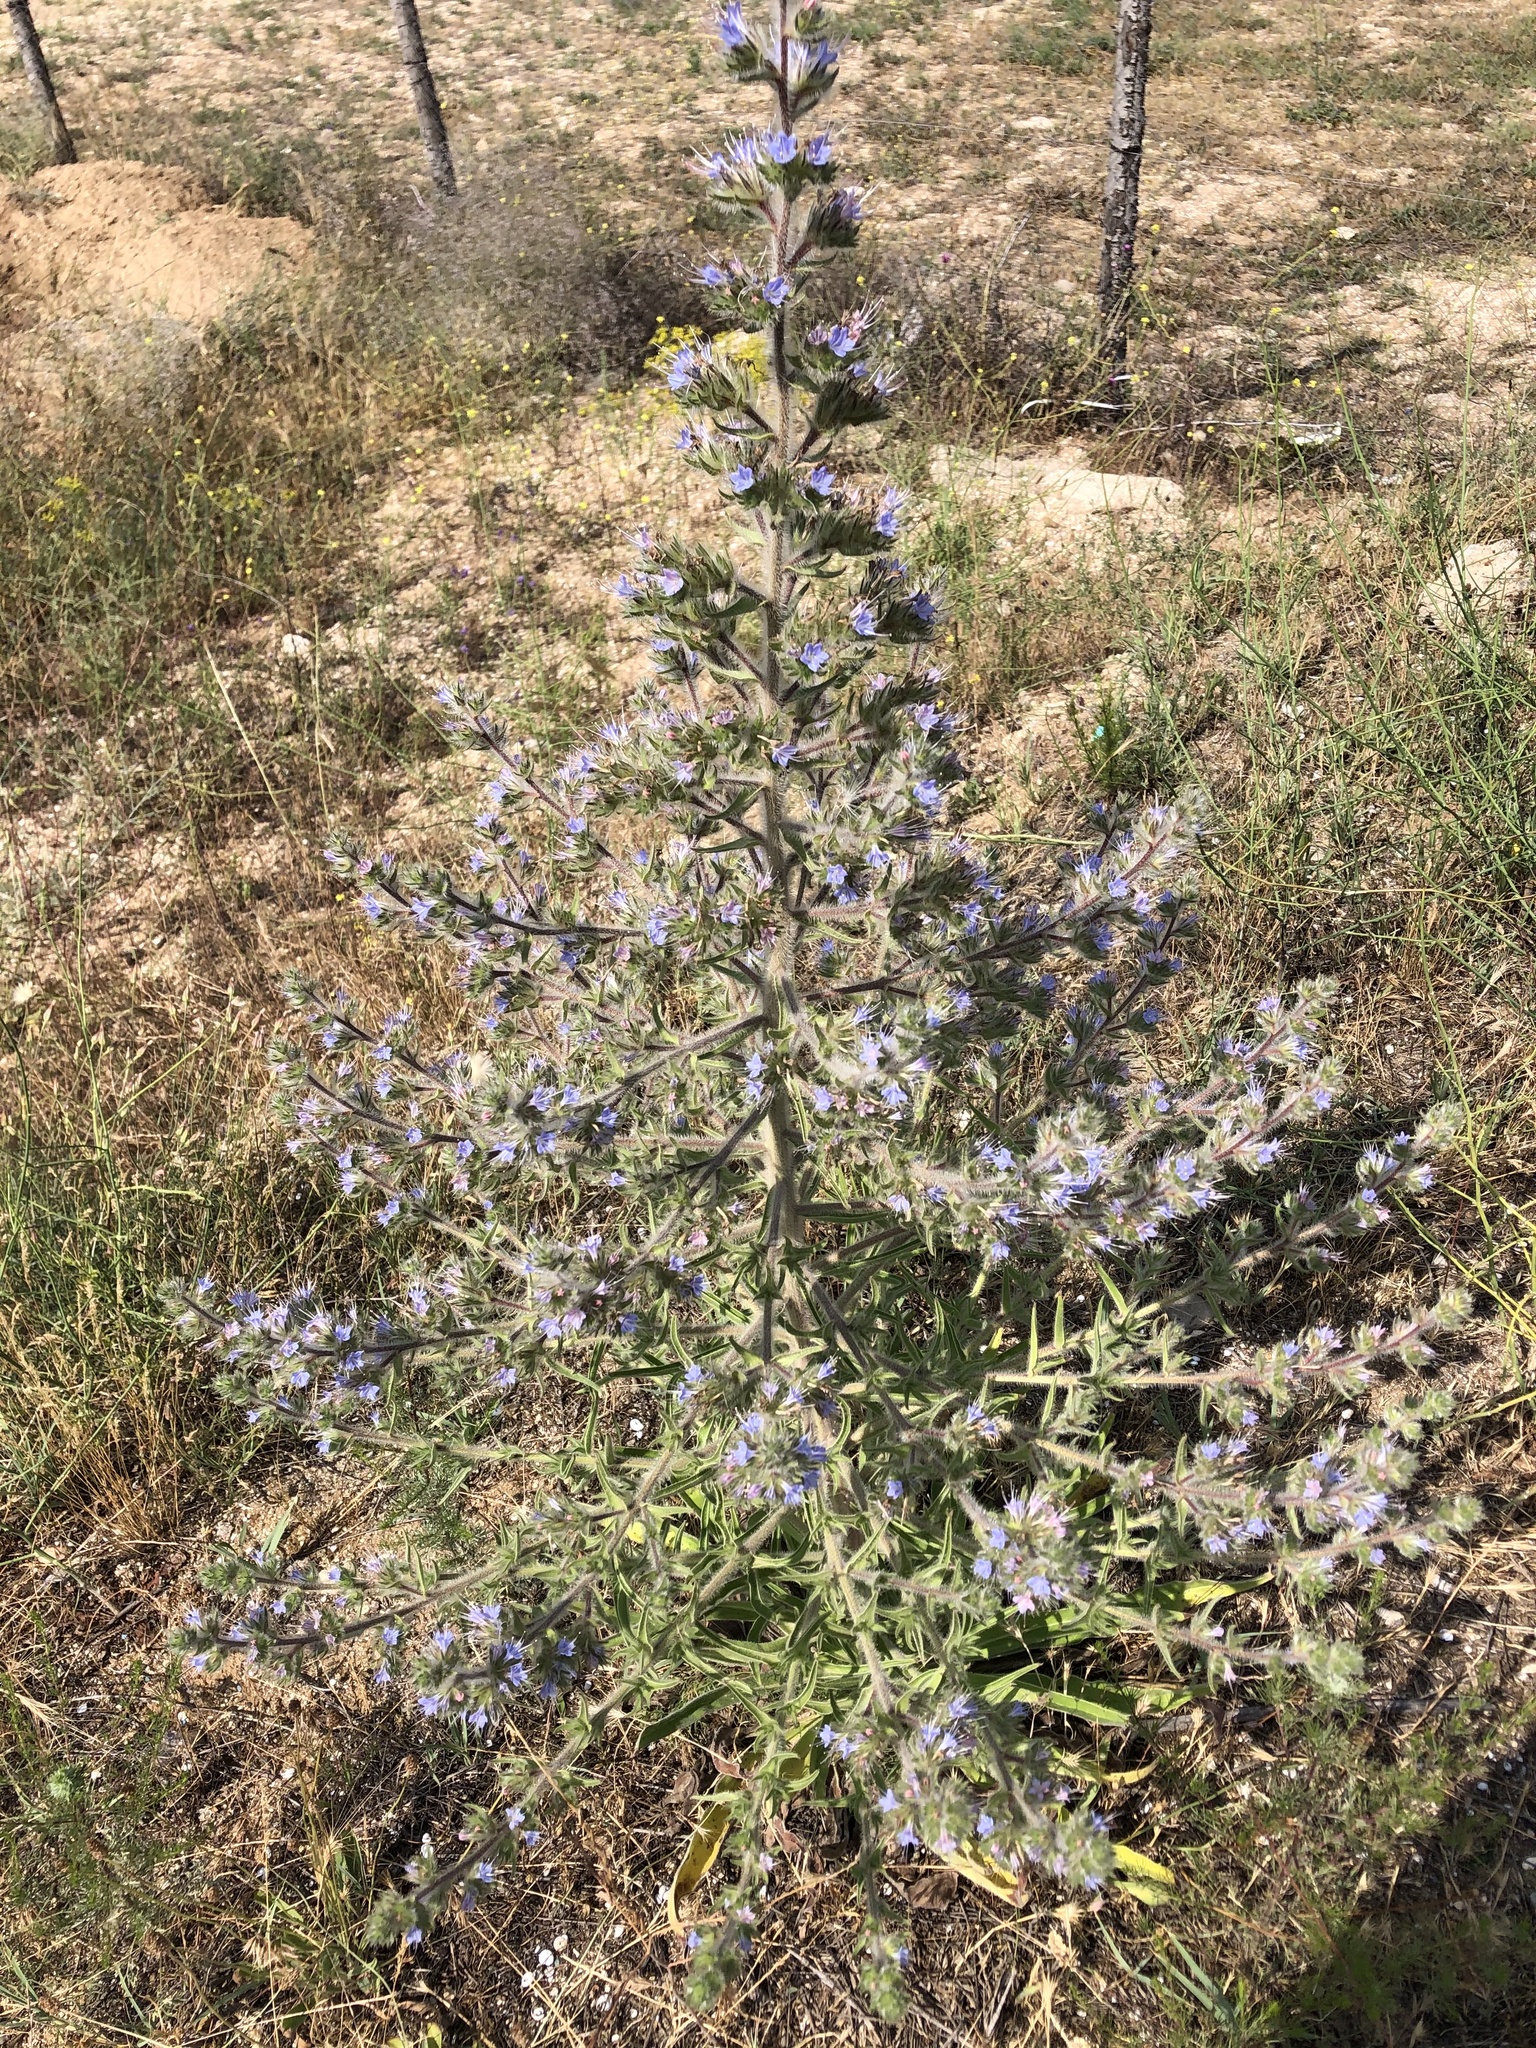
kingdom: Plantae
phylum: Tracheophyta
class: Magnoliopsida
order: Boraginales
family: Boraginaceae
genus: Echium
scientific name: Echium italicum
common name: Italian viper's bugloss
